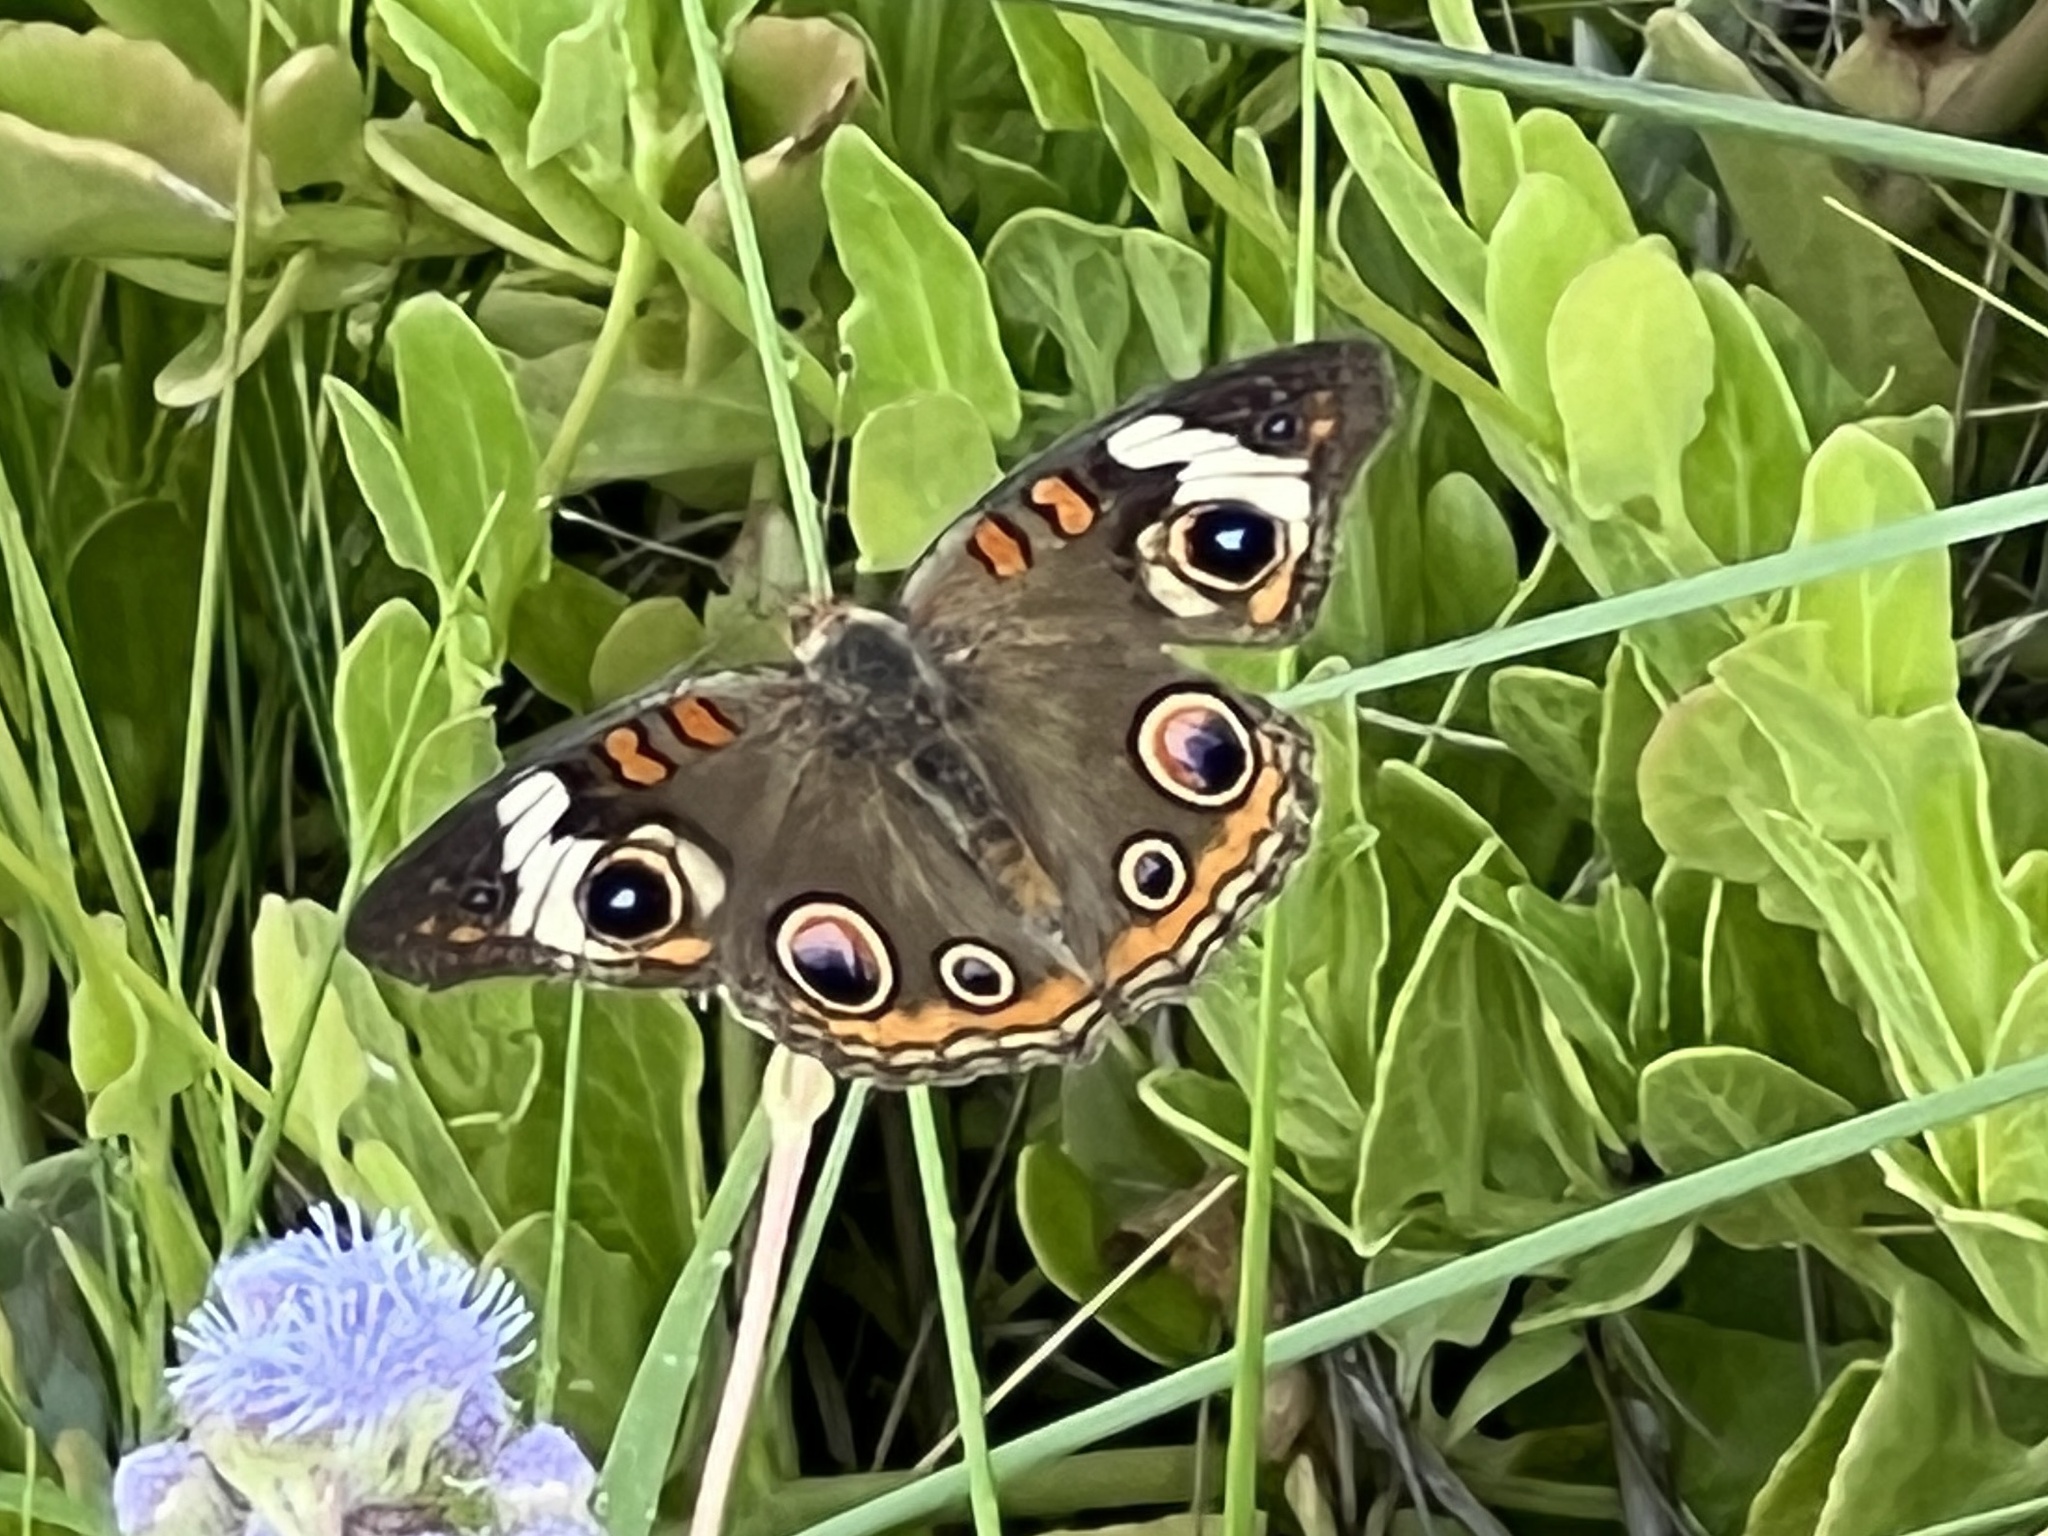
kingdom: Animalia
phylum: Arthropoda
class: Insecta
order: Lepidoptera
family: Nymphalidae
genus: Junonia
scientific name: Junonia coenia
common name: Common buckeye
